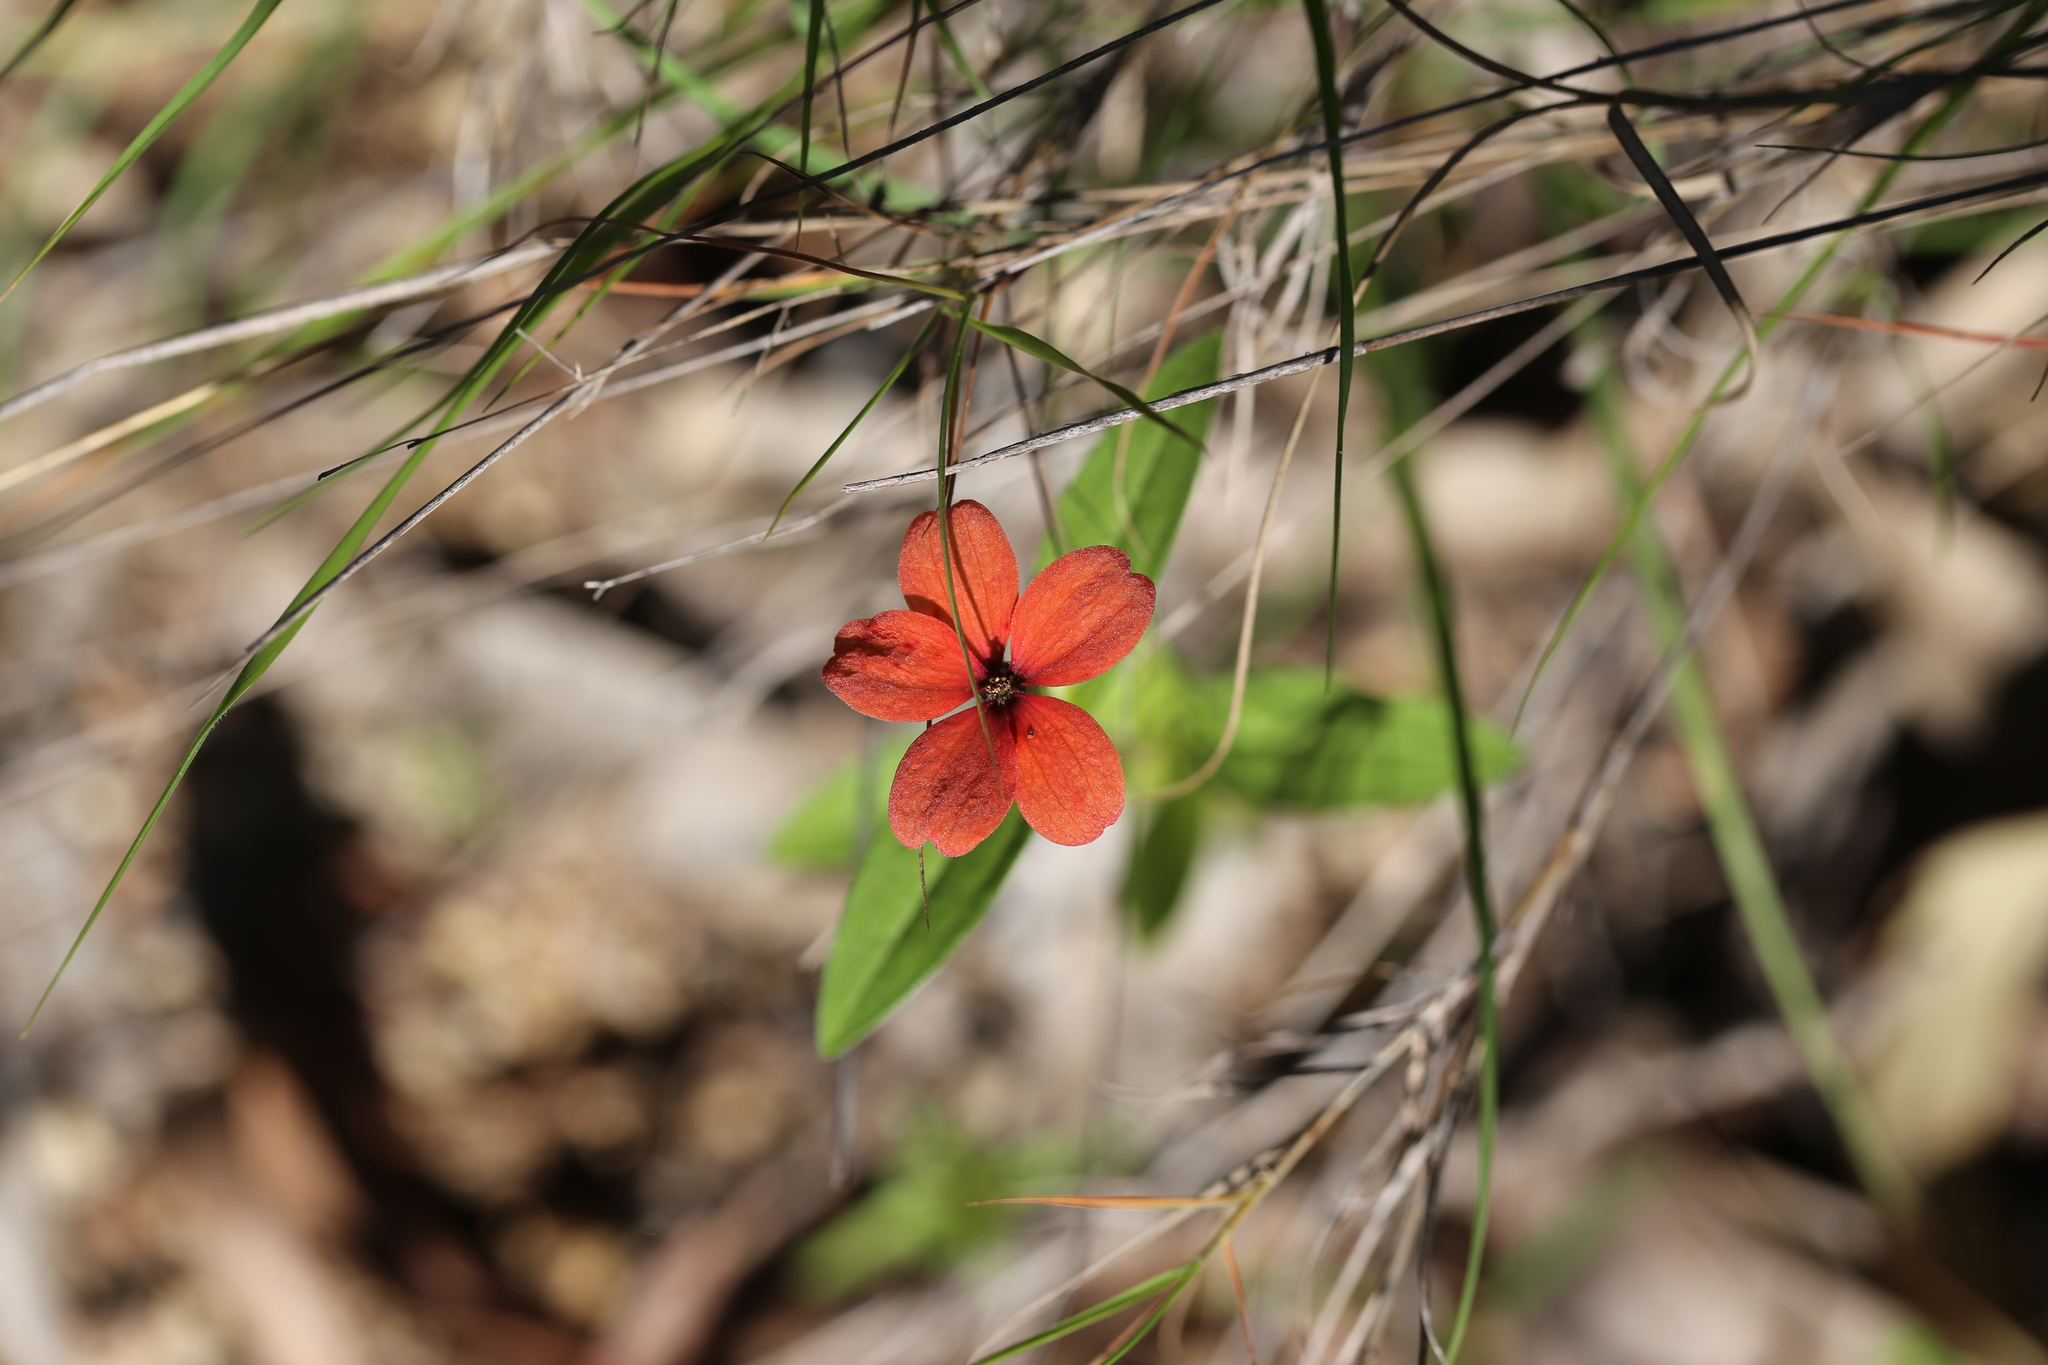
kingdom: Plantae
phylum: Tracheophyta
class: Magnoliopsida
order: Asterales
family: Asteraceae
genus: Zinnia
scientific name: Zinnia peruviana
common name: Peruvian zinnia
